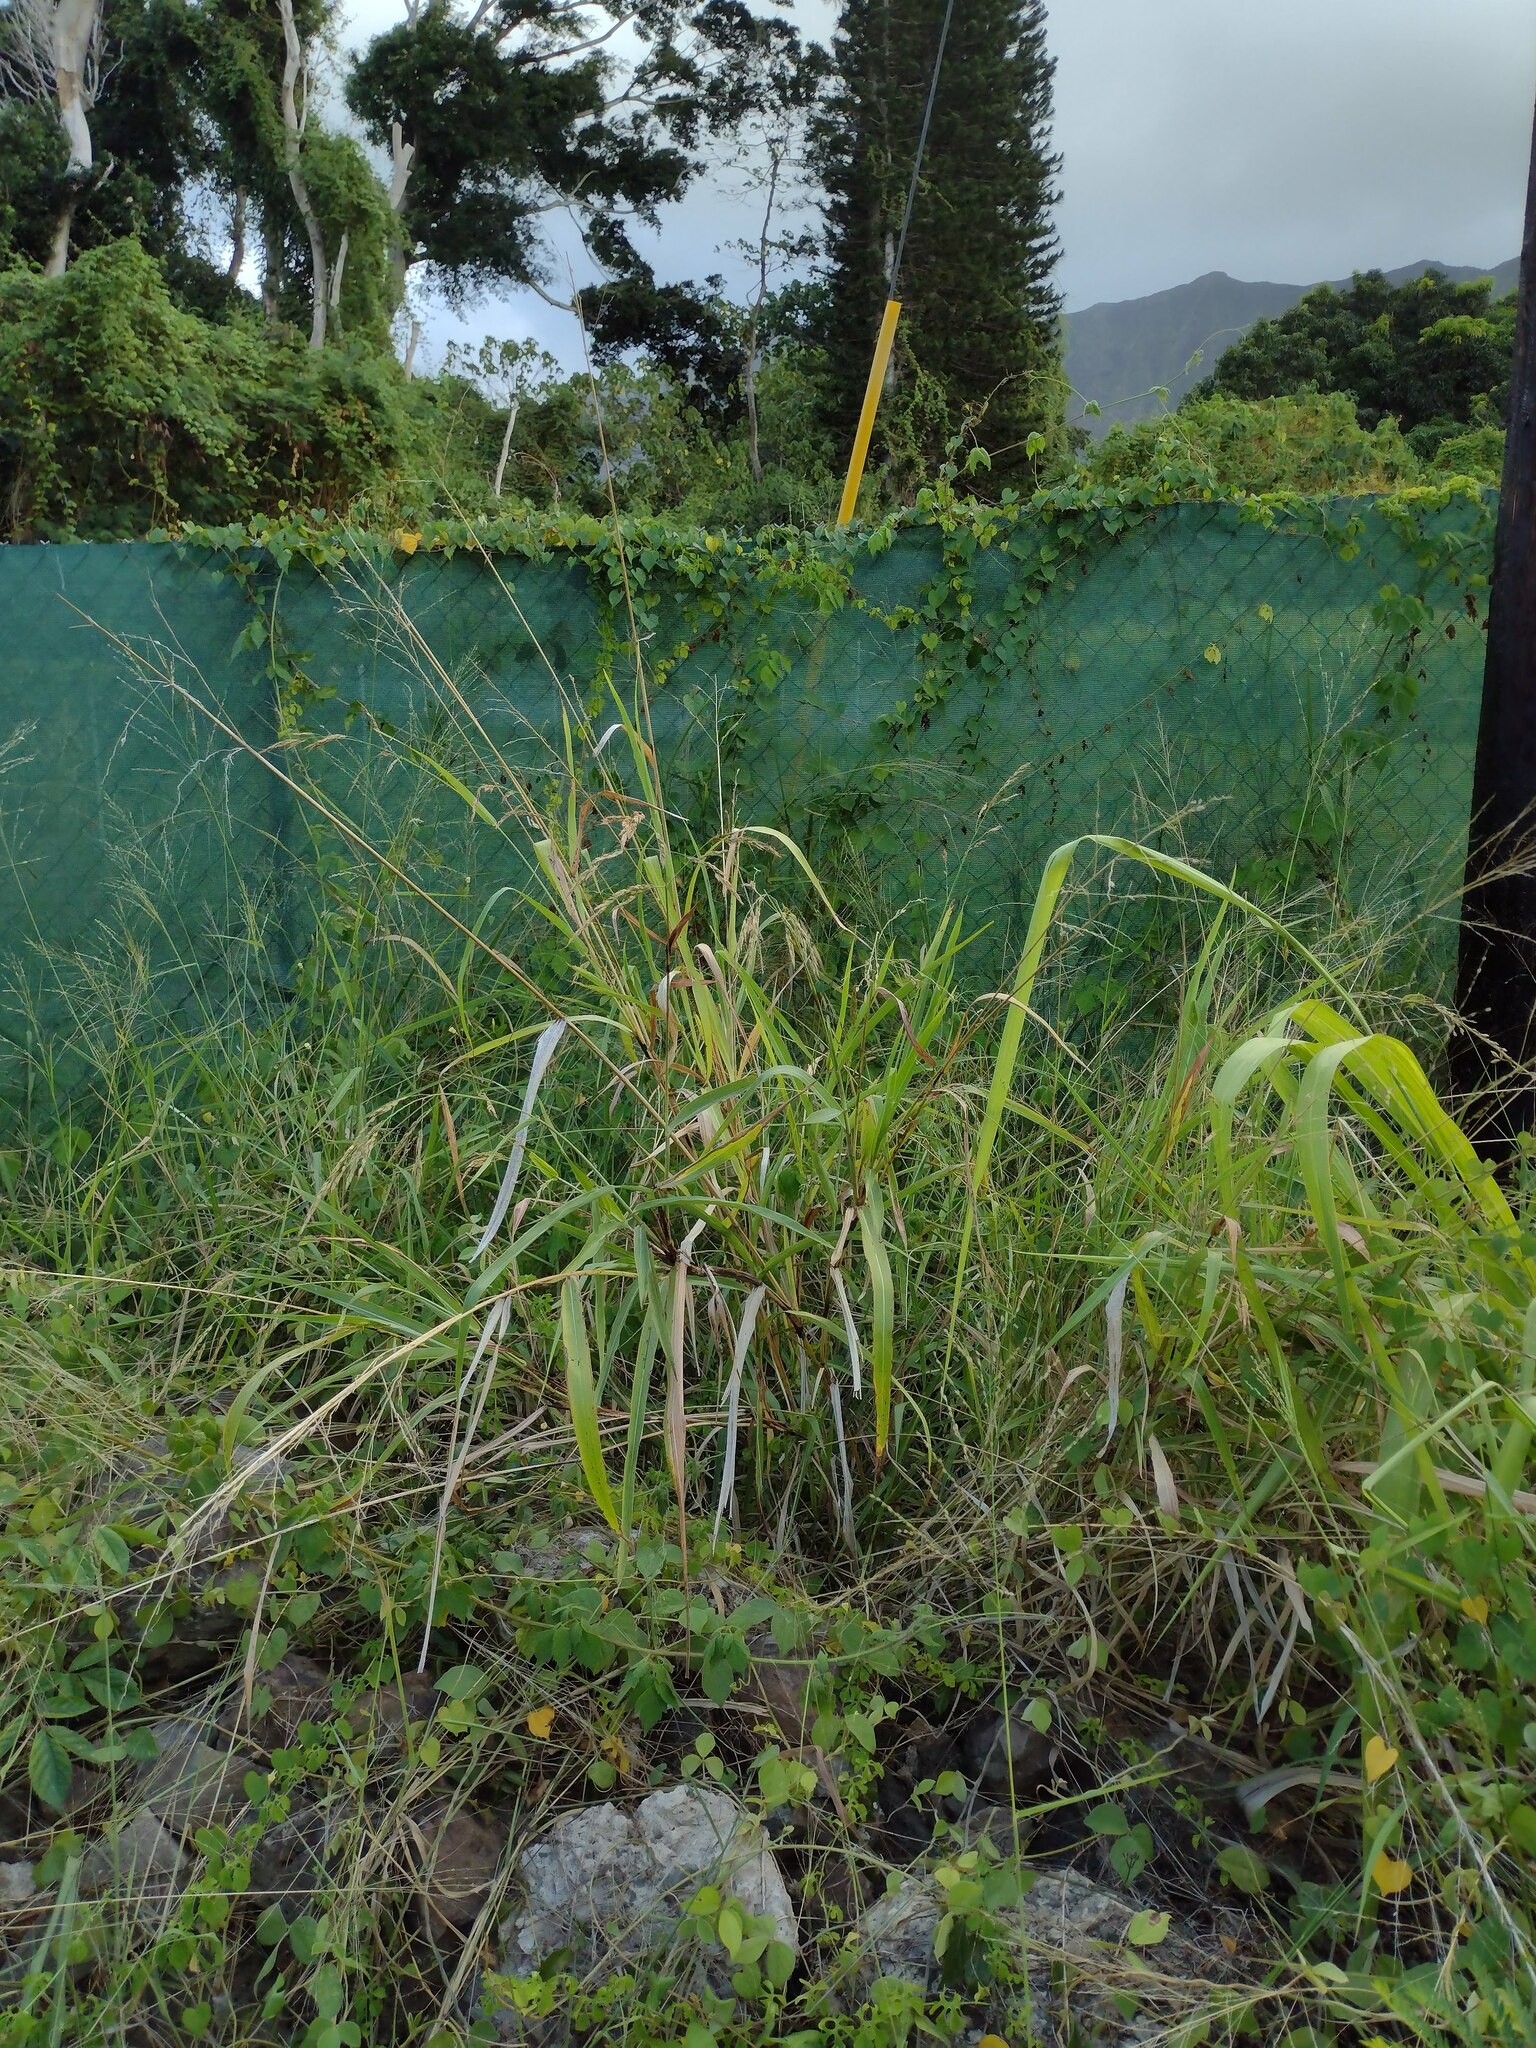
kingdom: Plantae
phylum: Tracheophyta
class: Liliopsida
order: Poales
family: Poaceae
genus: Megathyrsus
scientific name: Megathyrsus maximus
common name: Guineagrass
